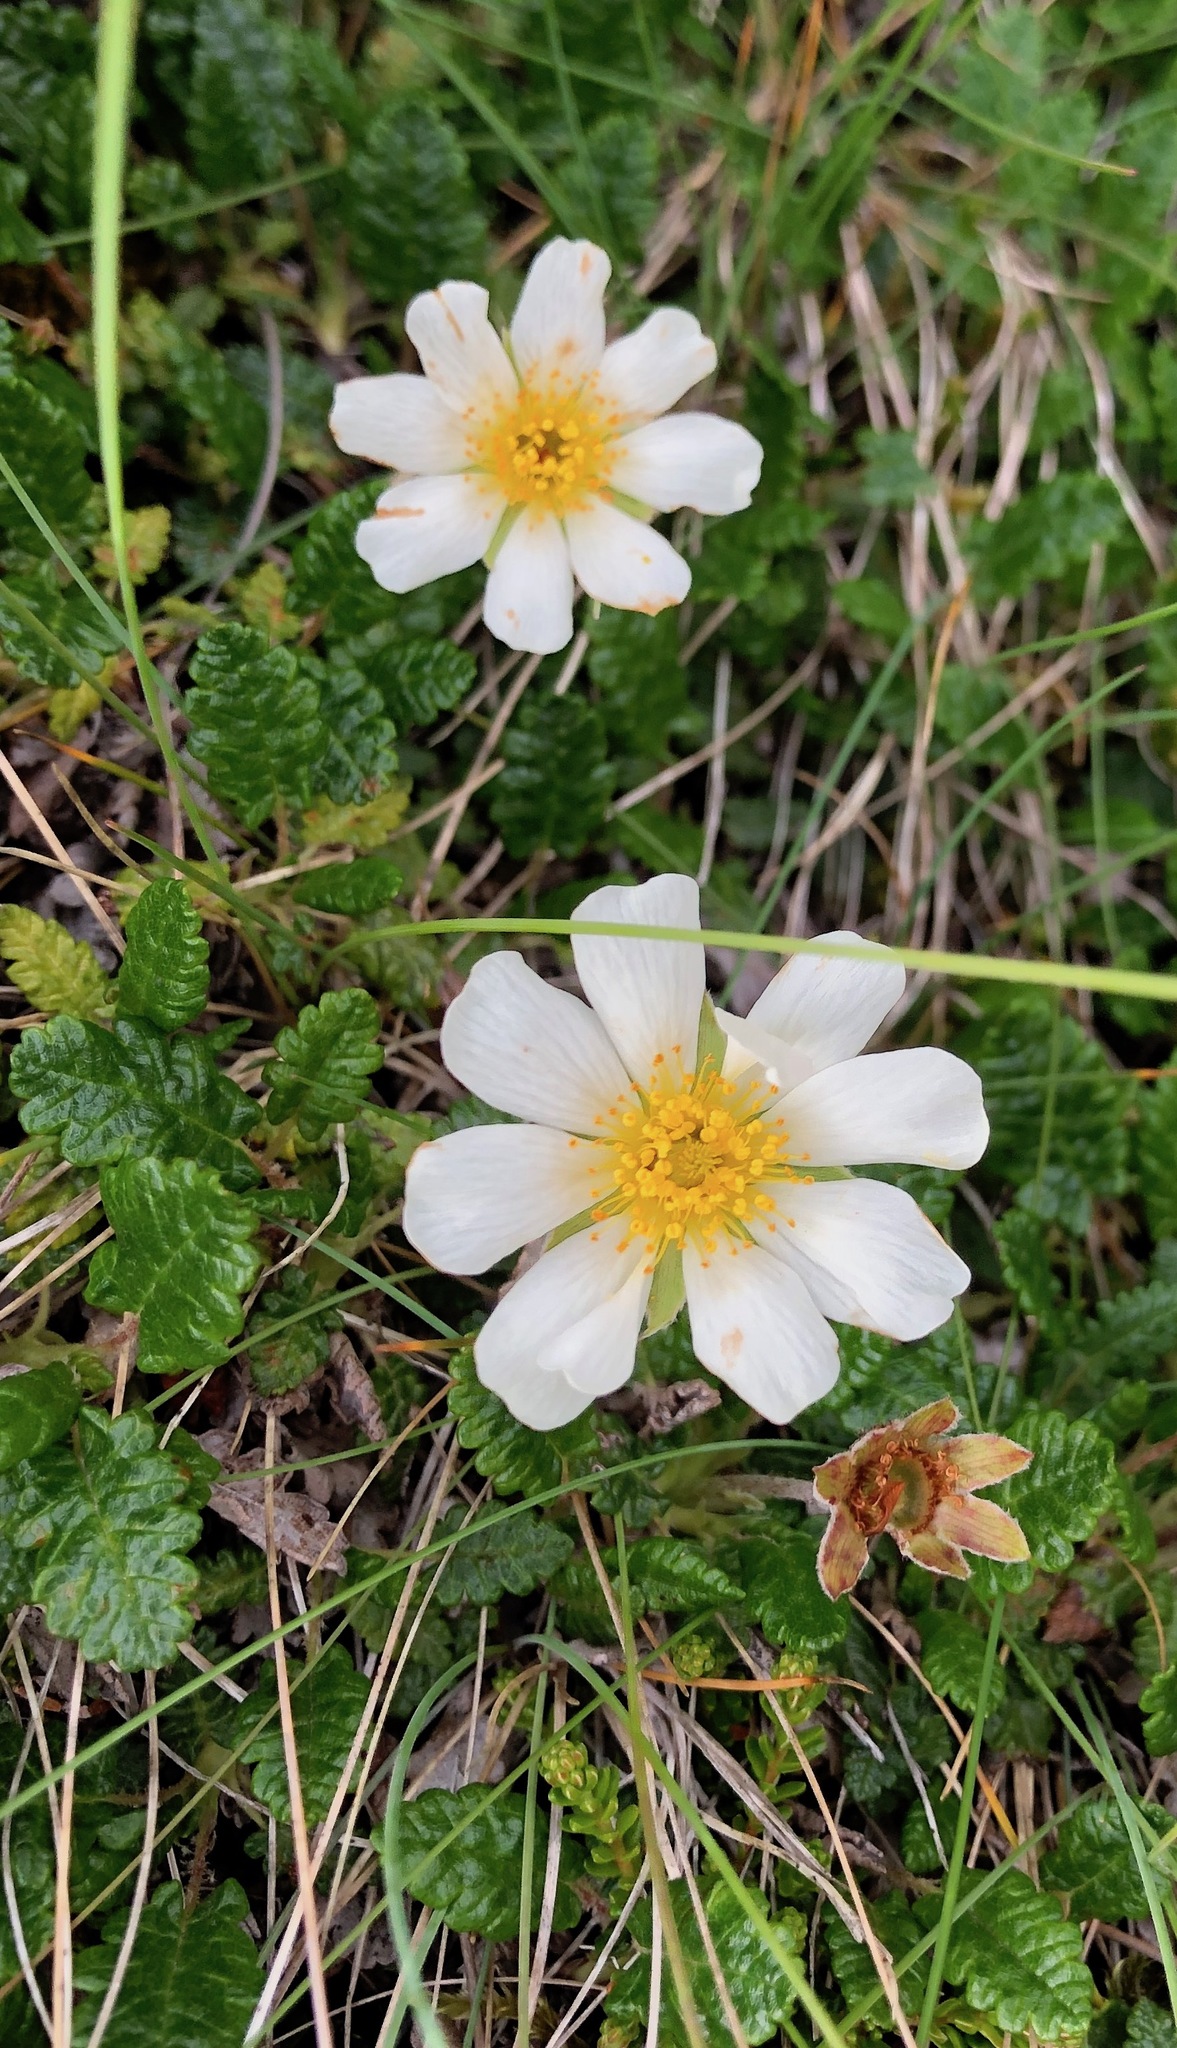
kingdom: Plantae
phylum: Tracheophyta
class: Magnoliopsida
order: Rosales
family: Rosaceae
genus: Dryas
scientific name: Dryas octopetala
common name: Eight-petal mountain-avens
